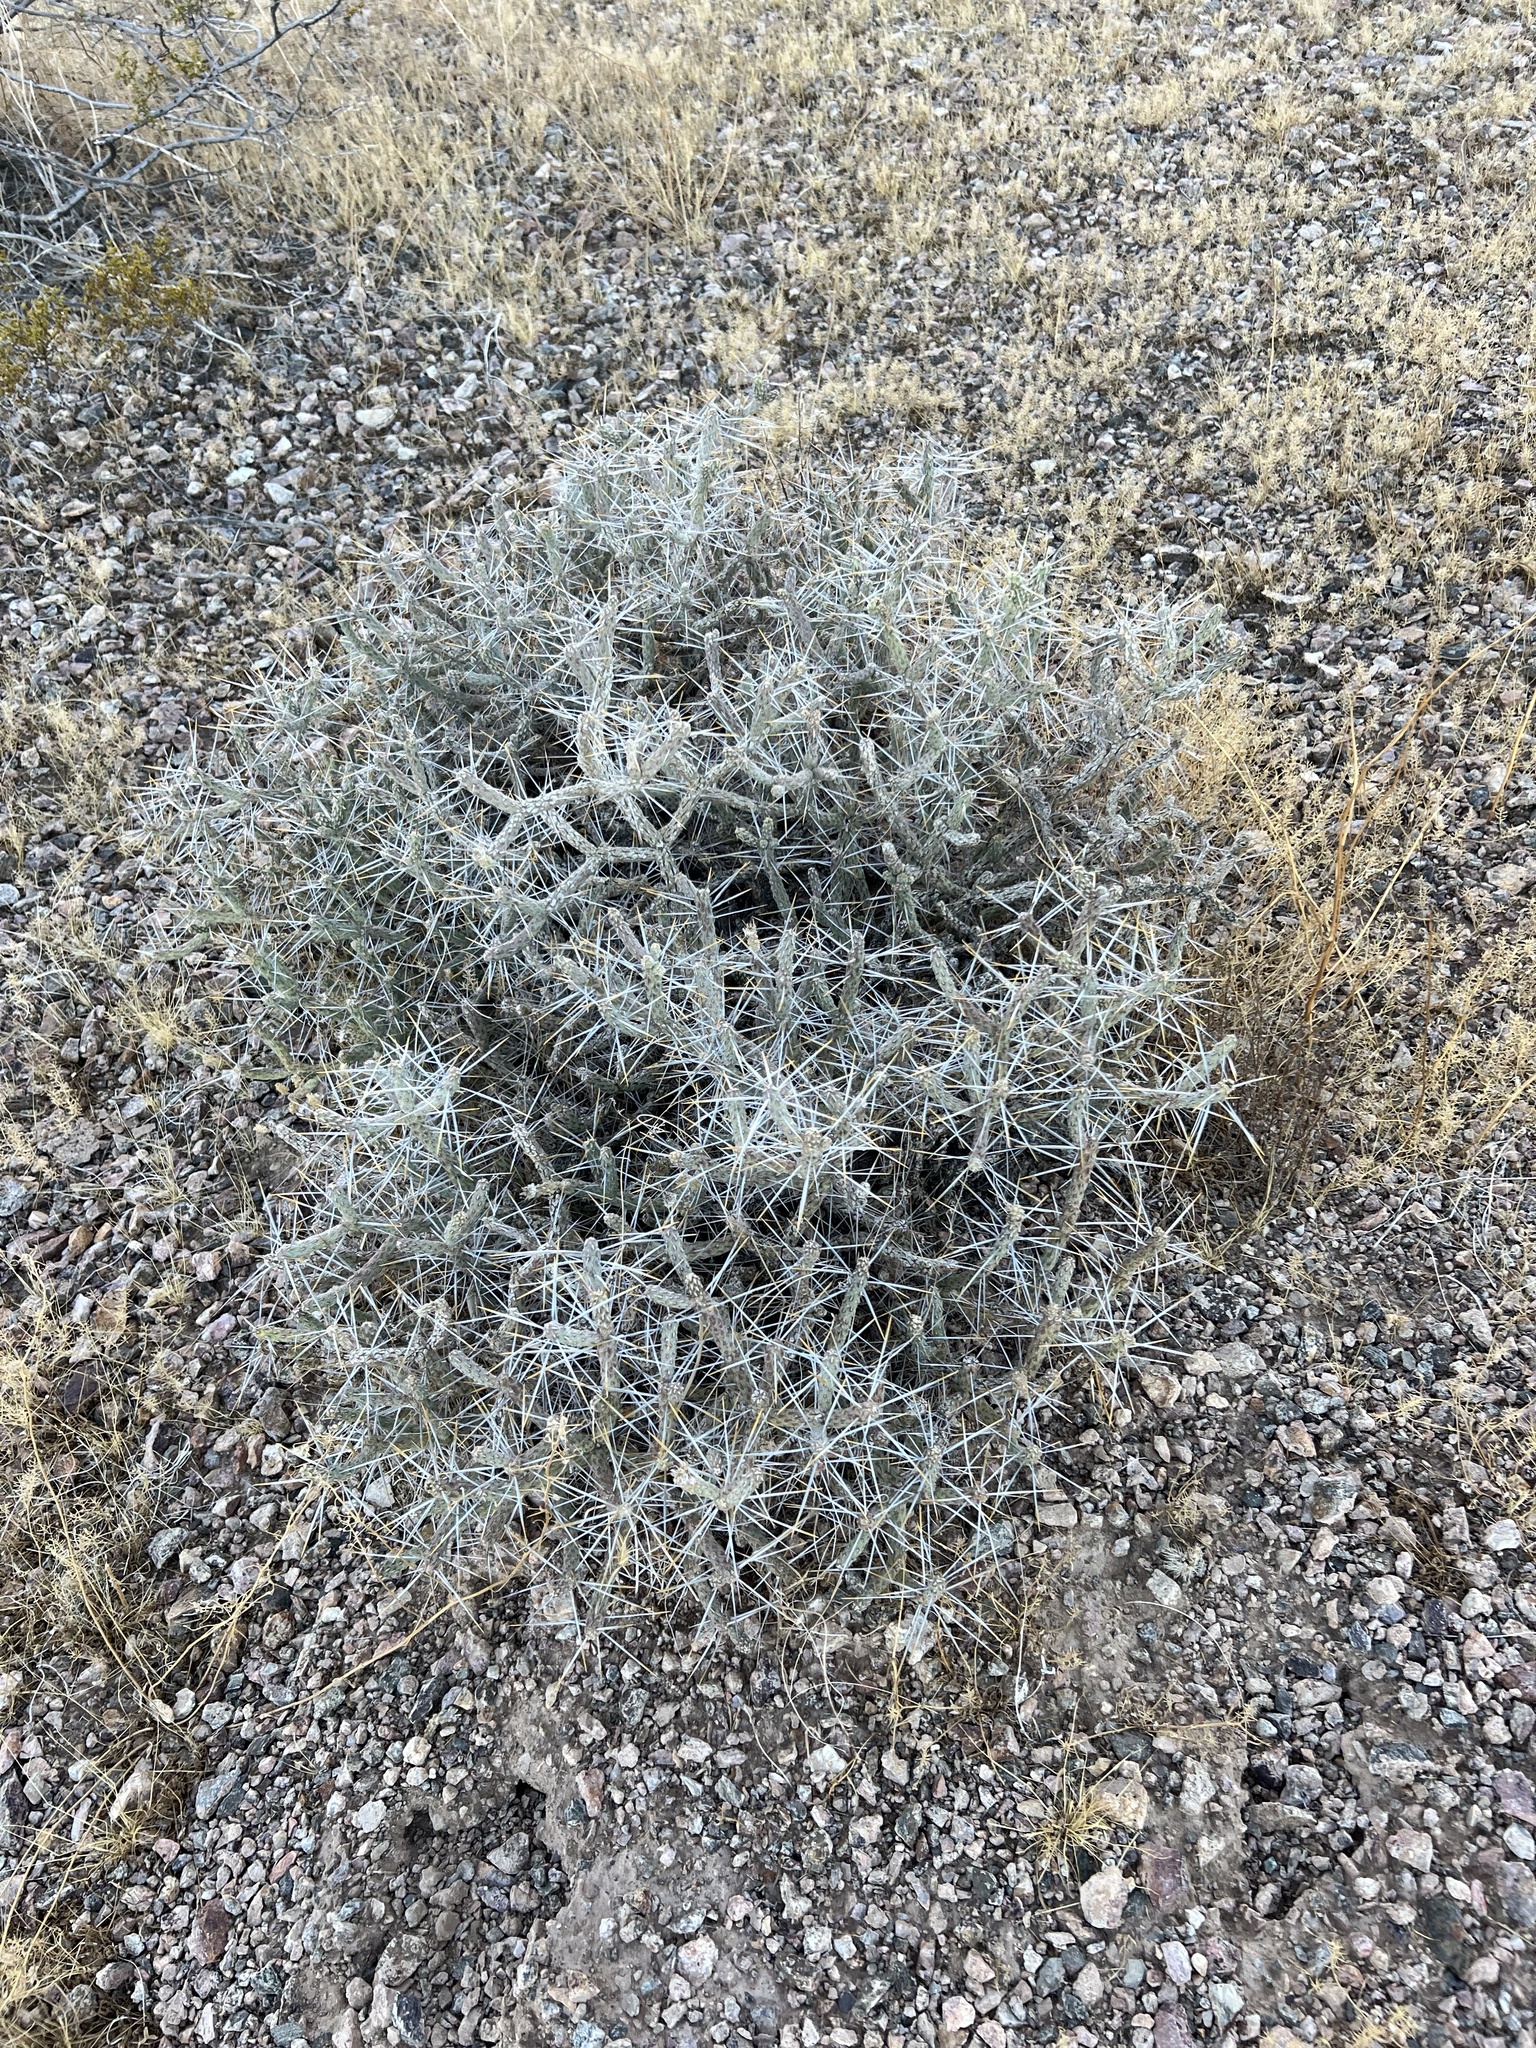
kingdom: Plantae
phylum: Tracheophyta
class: Magnoliopsida
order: Caryophyllales
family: Cactaceae
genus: Cylindropuntia
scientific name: Cylindropuntia ramosissima
